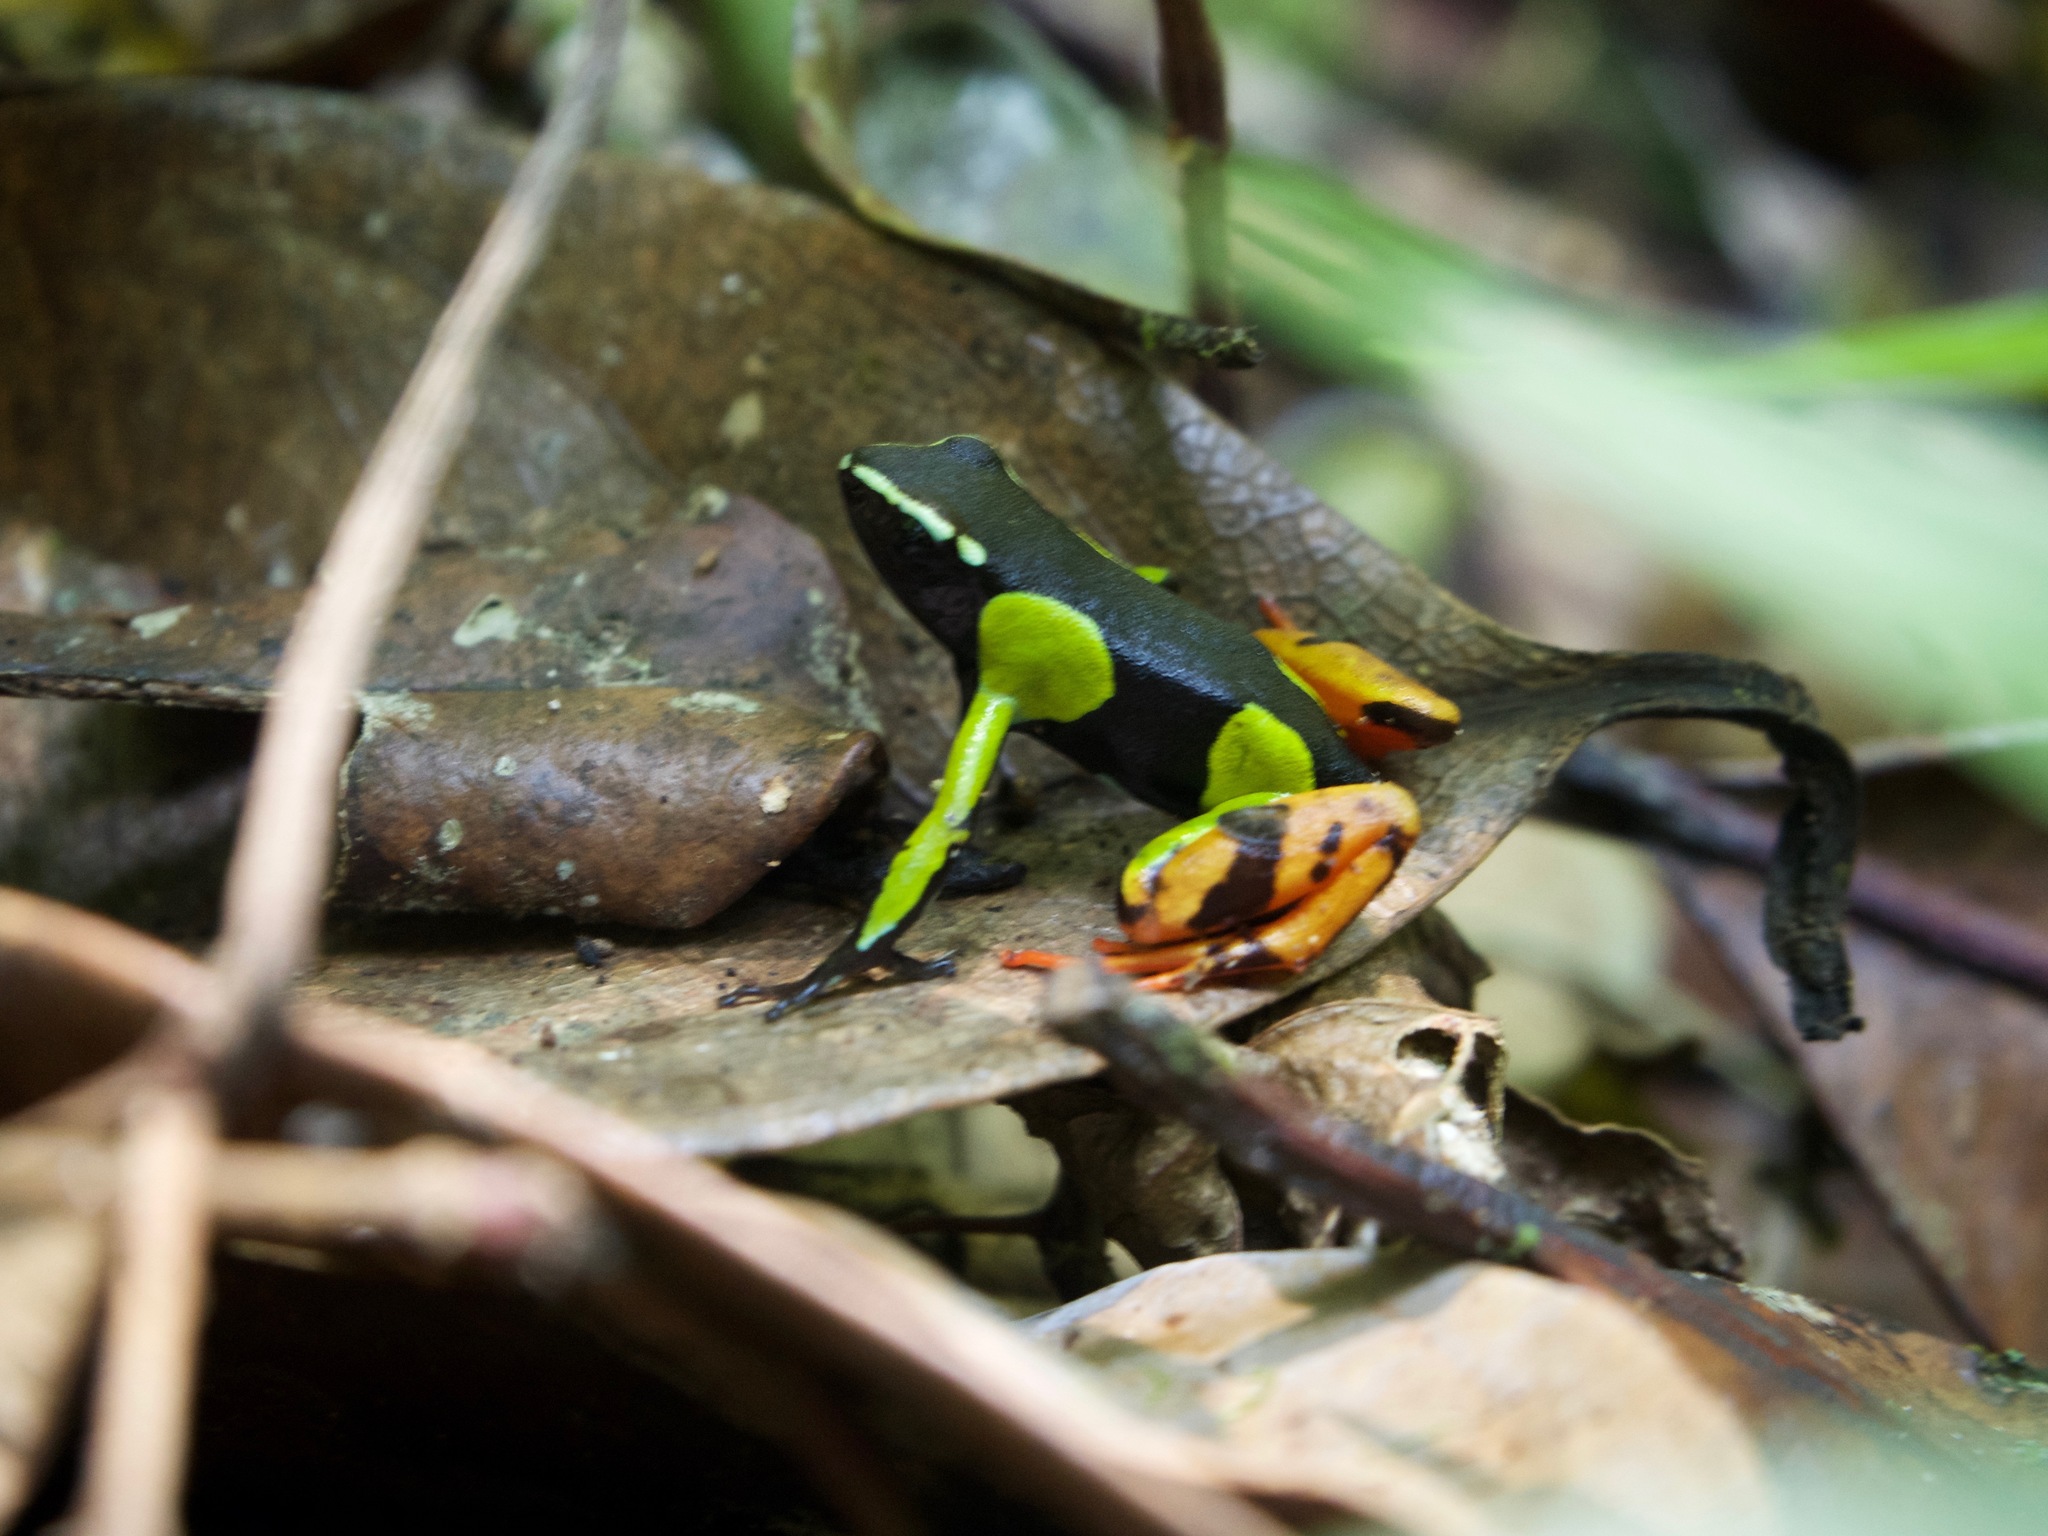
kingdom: Animalia
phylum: Chordata
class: Amphibia
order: Anura
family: Mantellidae
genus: Mantella
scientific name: Mantella baroni
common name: Baron's mantella
